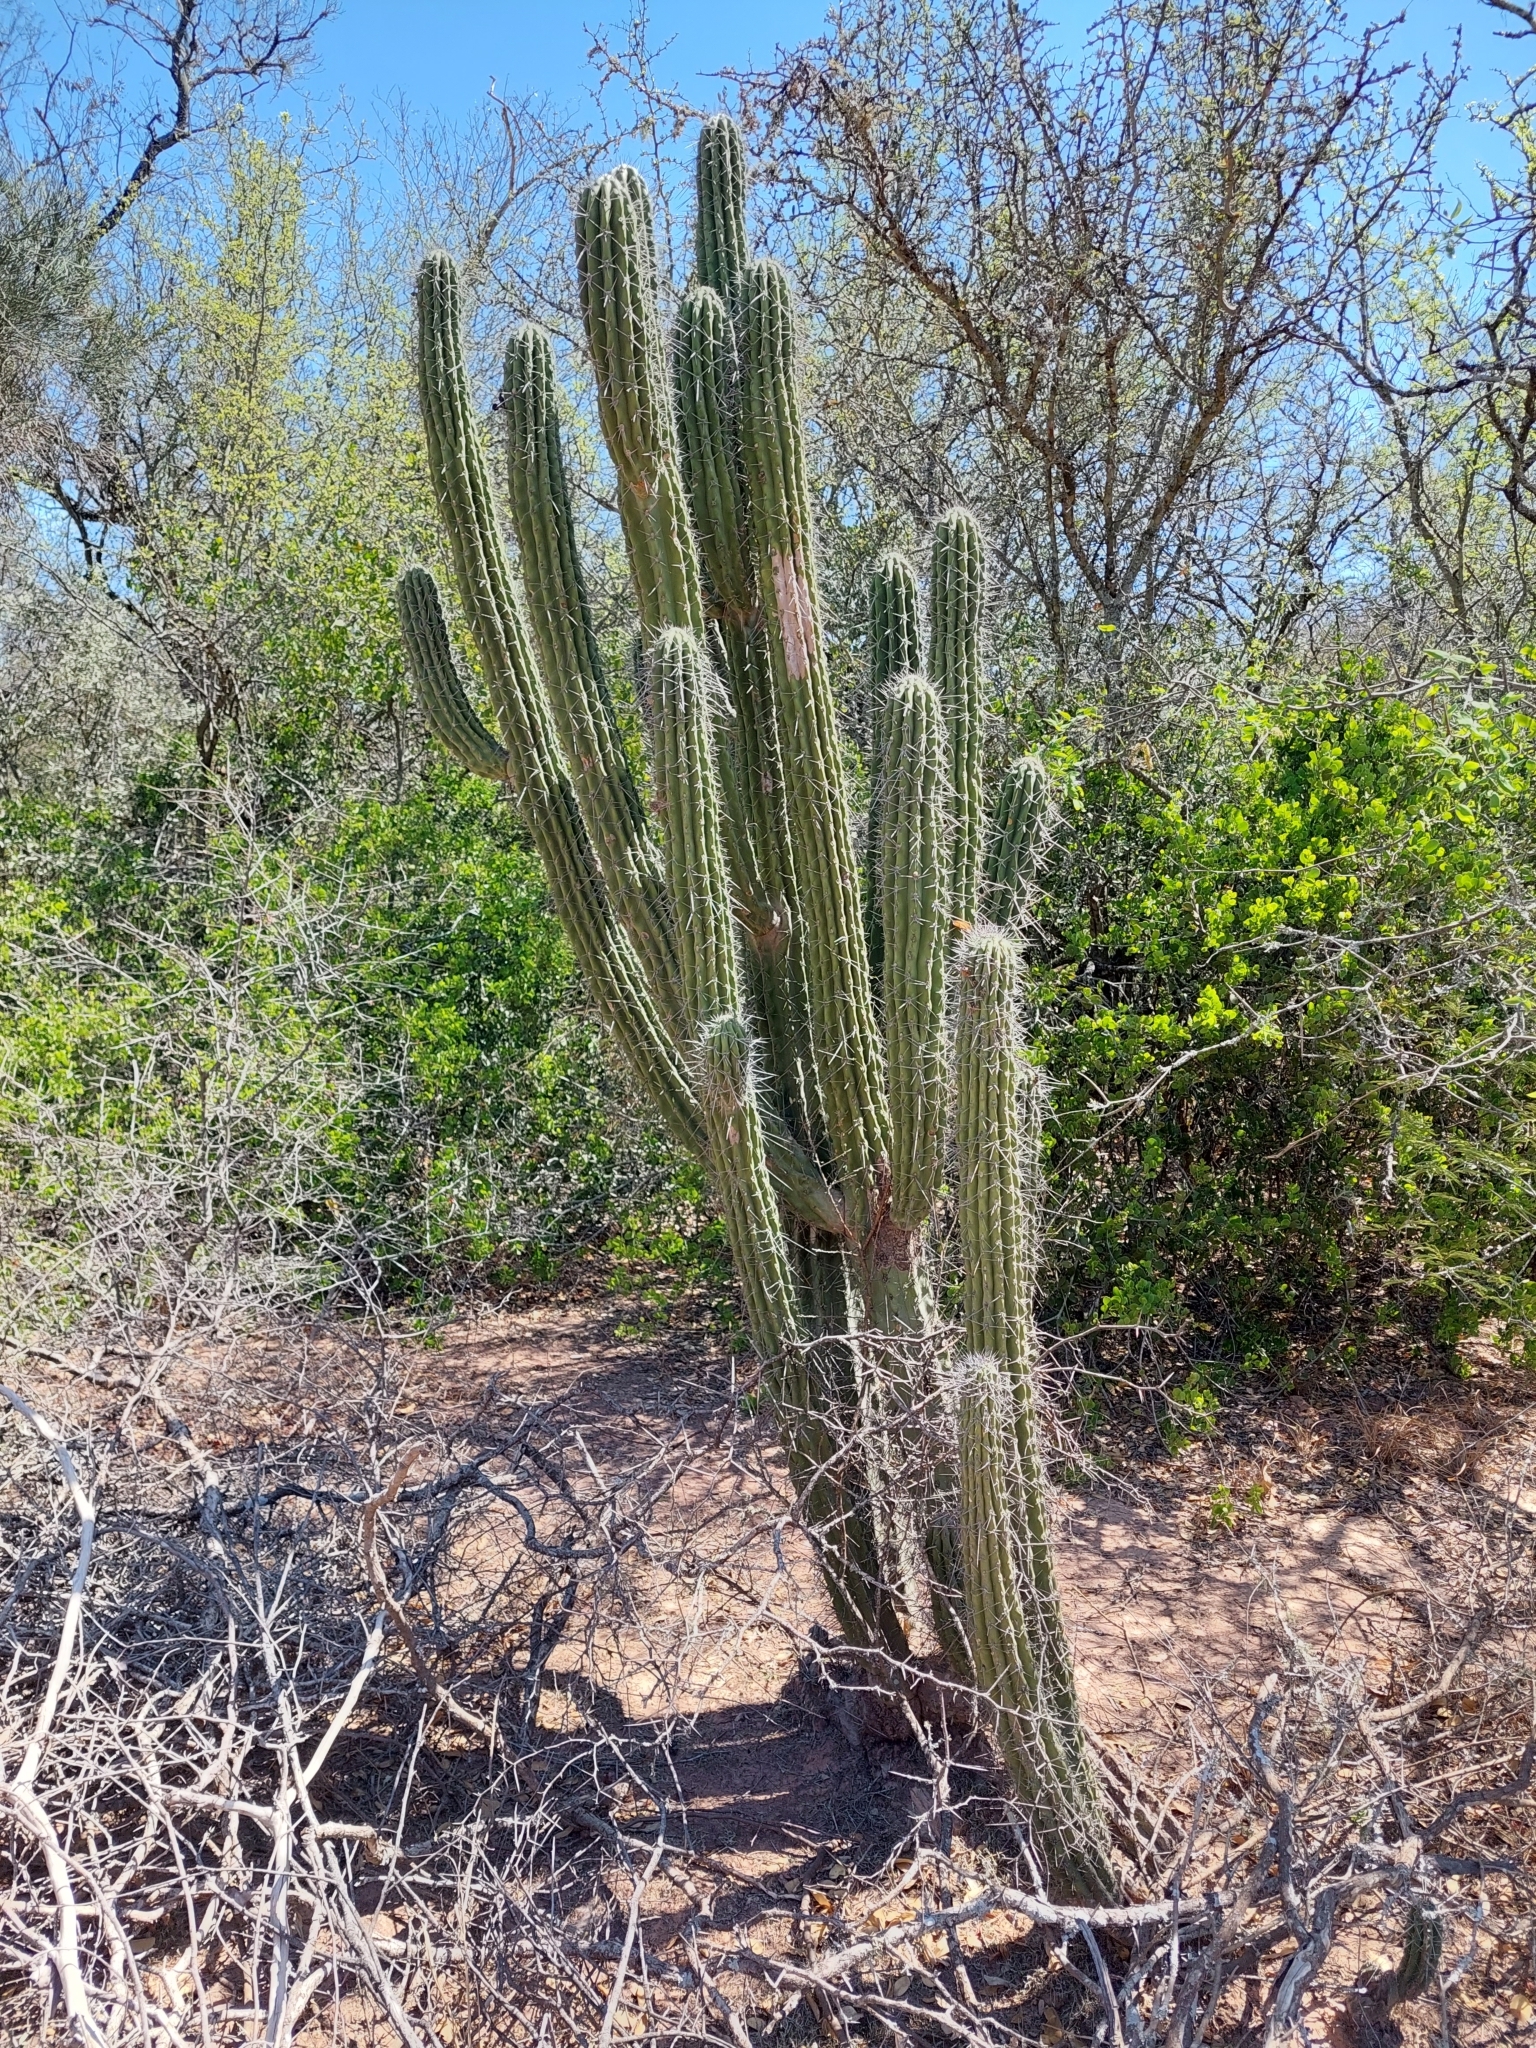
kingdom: Plantae
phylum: Tracheophyta
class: Magnoliopsida
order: Caryophyllales
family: Cactaceae
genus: Stetsonia
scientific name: Stetsonia coryne
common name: Toothpick cactus
